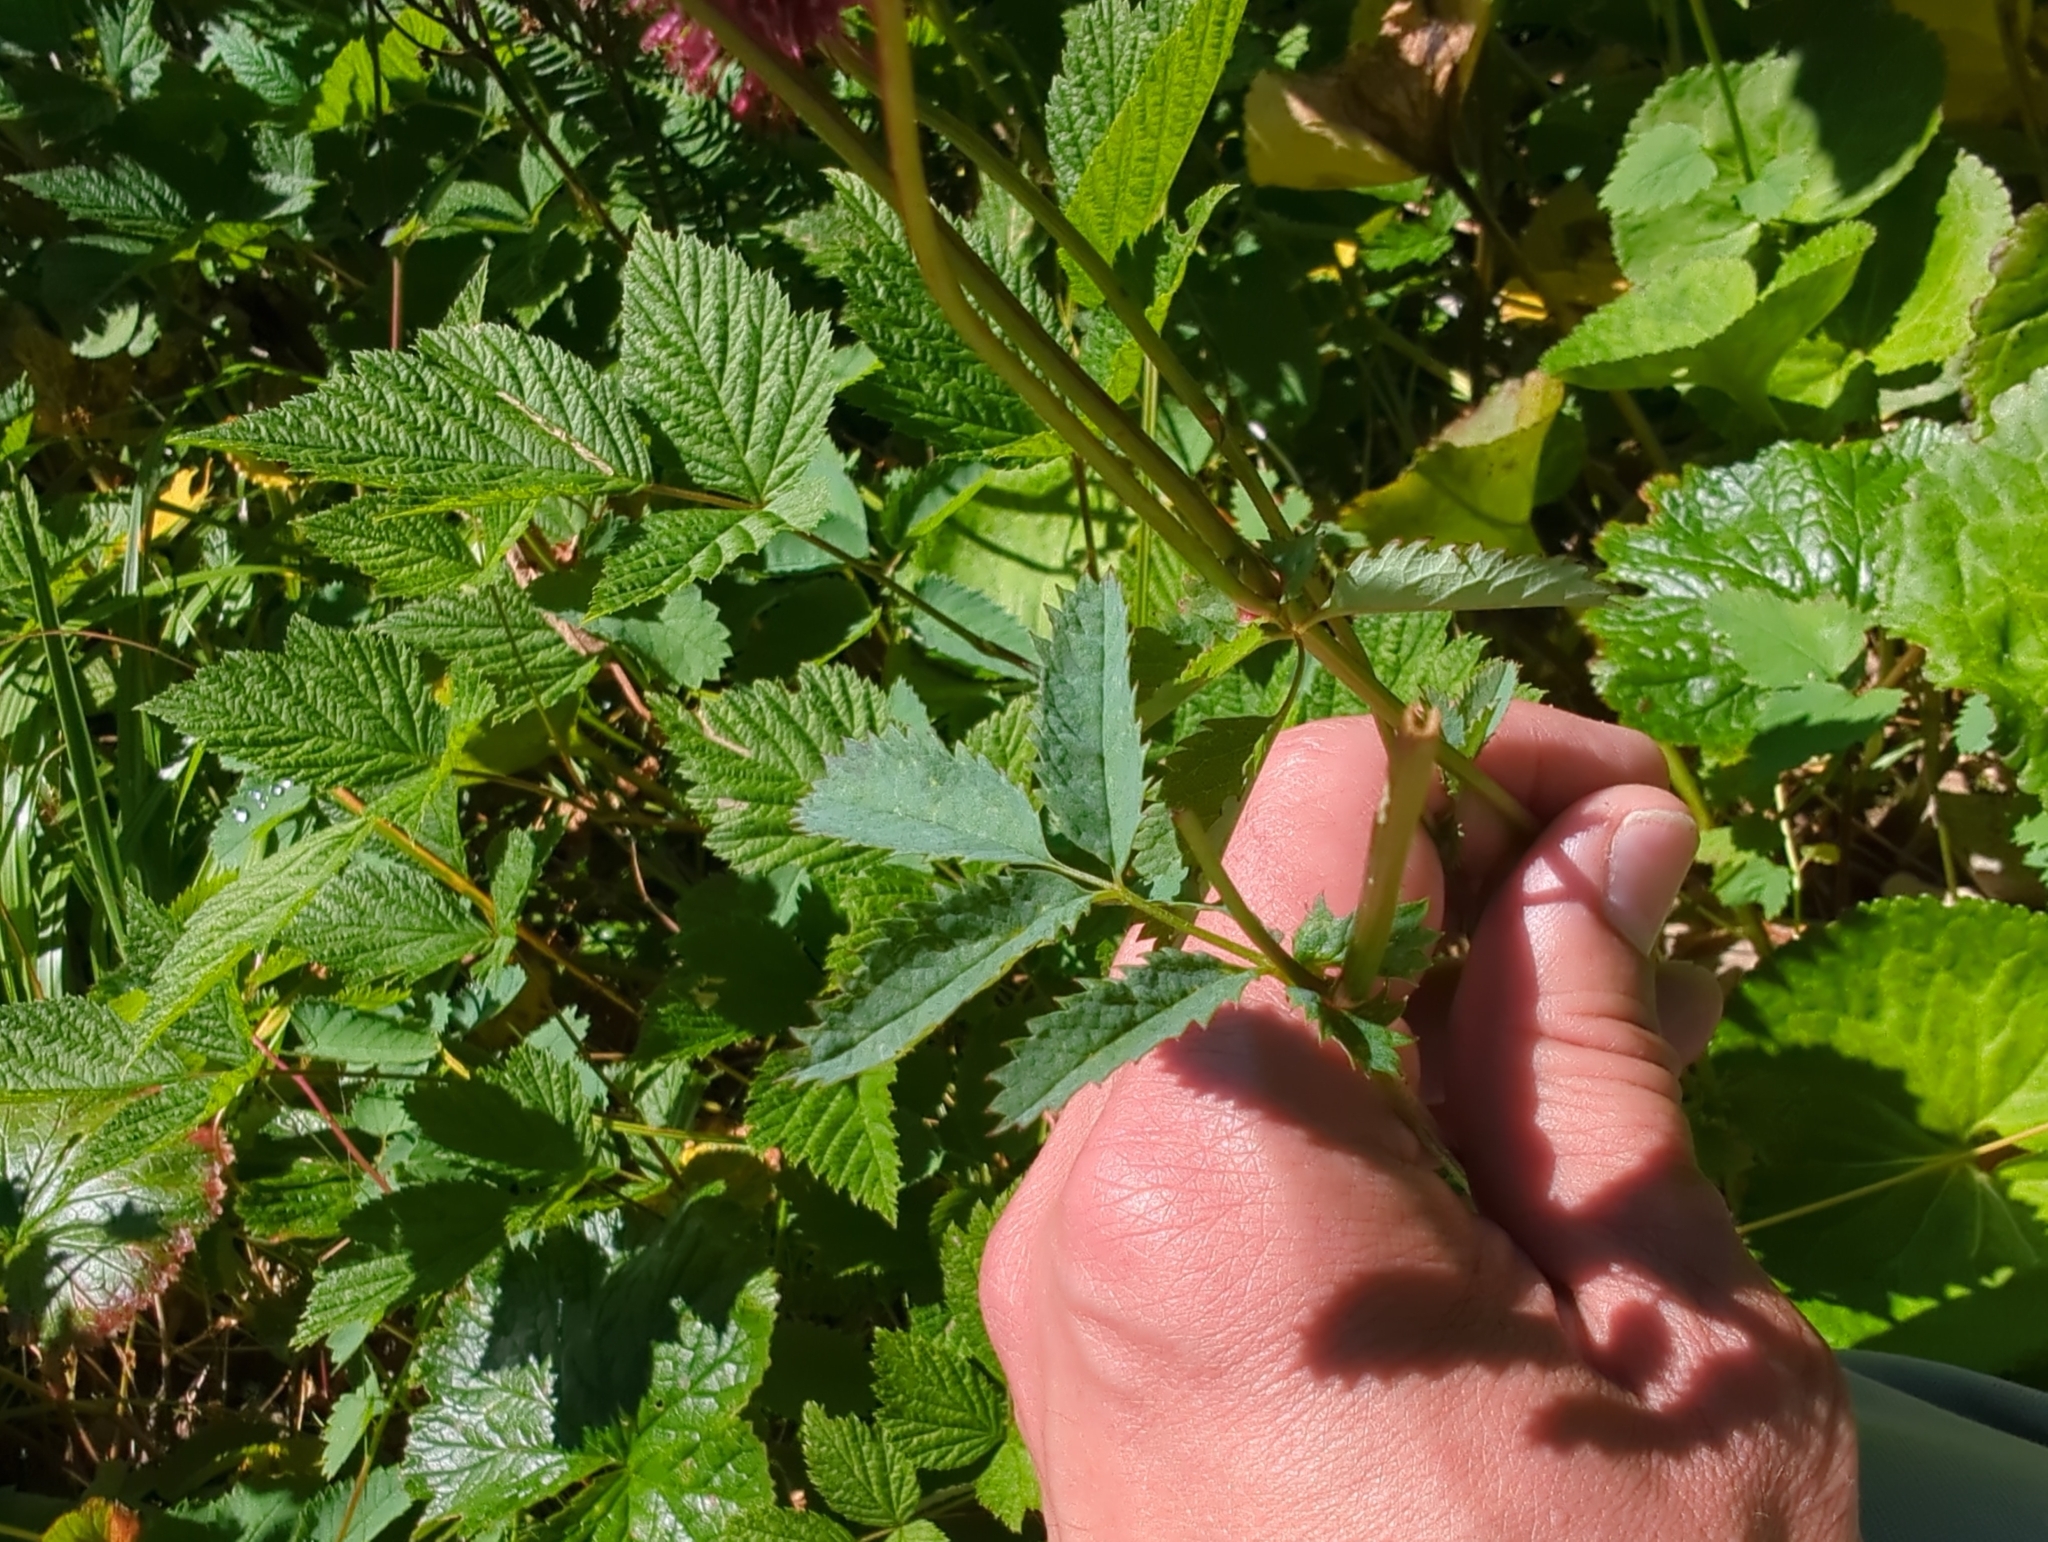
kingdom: Plantae
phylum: Tracheophyta
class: Magnoliopsida
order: Rosales
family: Rosaceae
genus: Sanguisorba
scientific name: Sanguisorba menziesii
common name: Menzies' burnet
